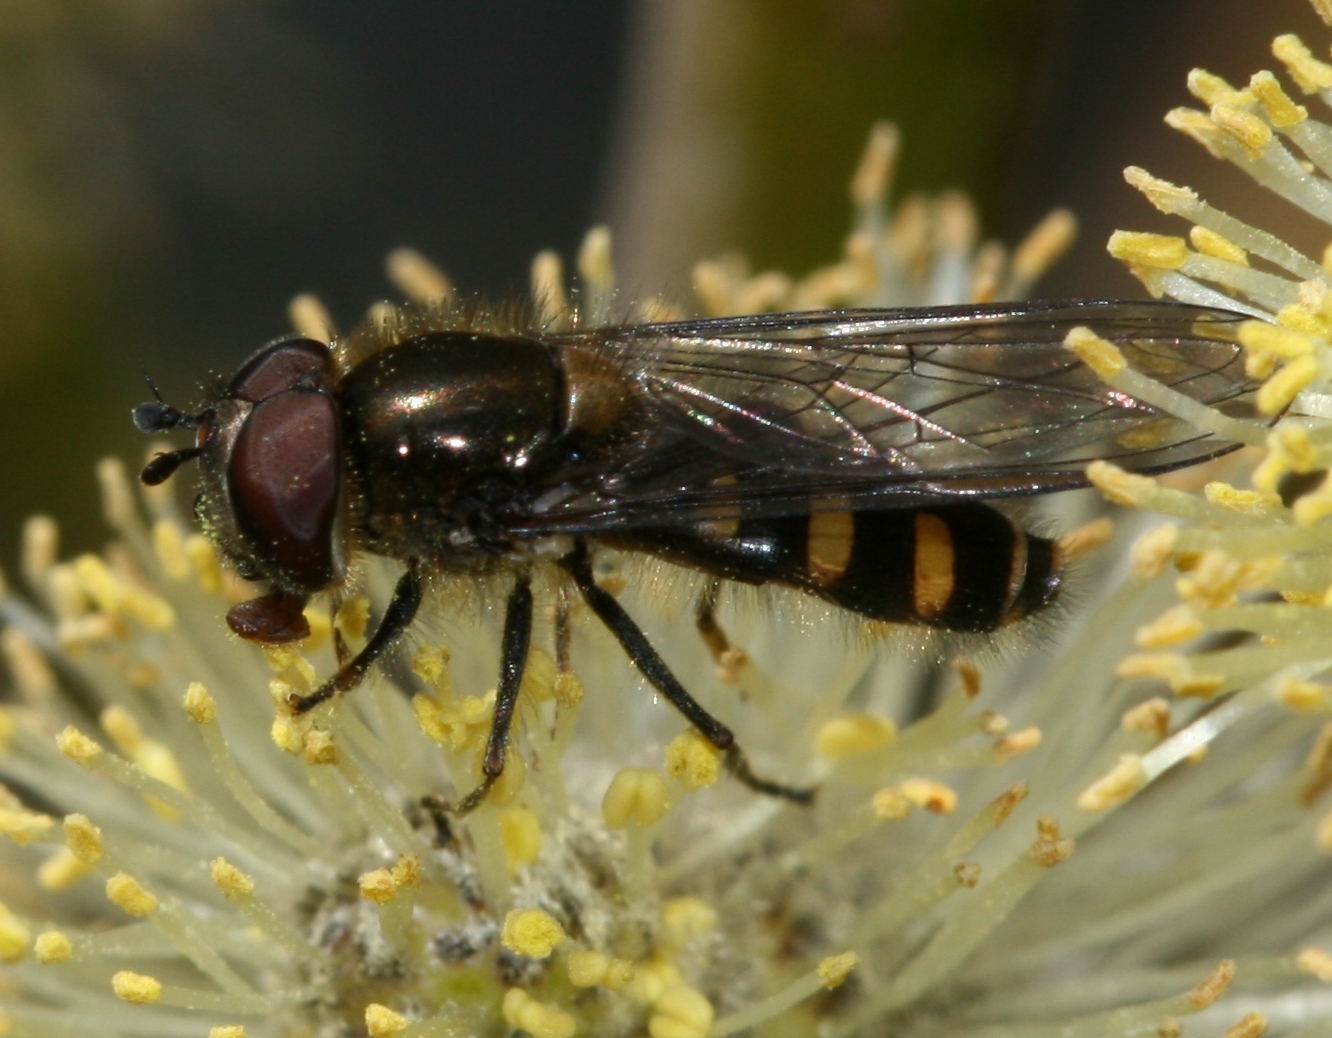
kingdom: Animalia
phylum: Arthropoda
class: Insecta
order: Diptera
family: Syrphidae
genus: Melangyna
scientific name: Melangyna lasiophthalma
